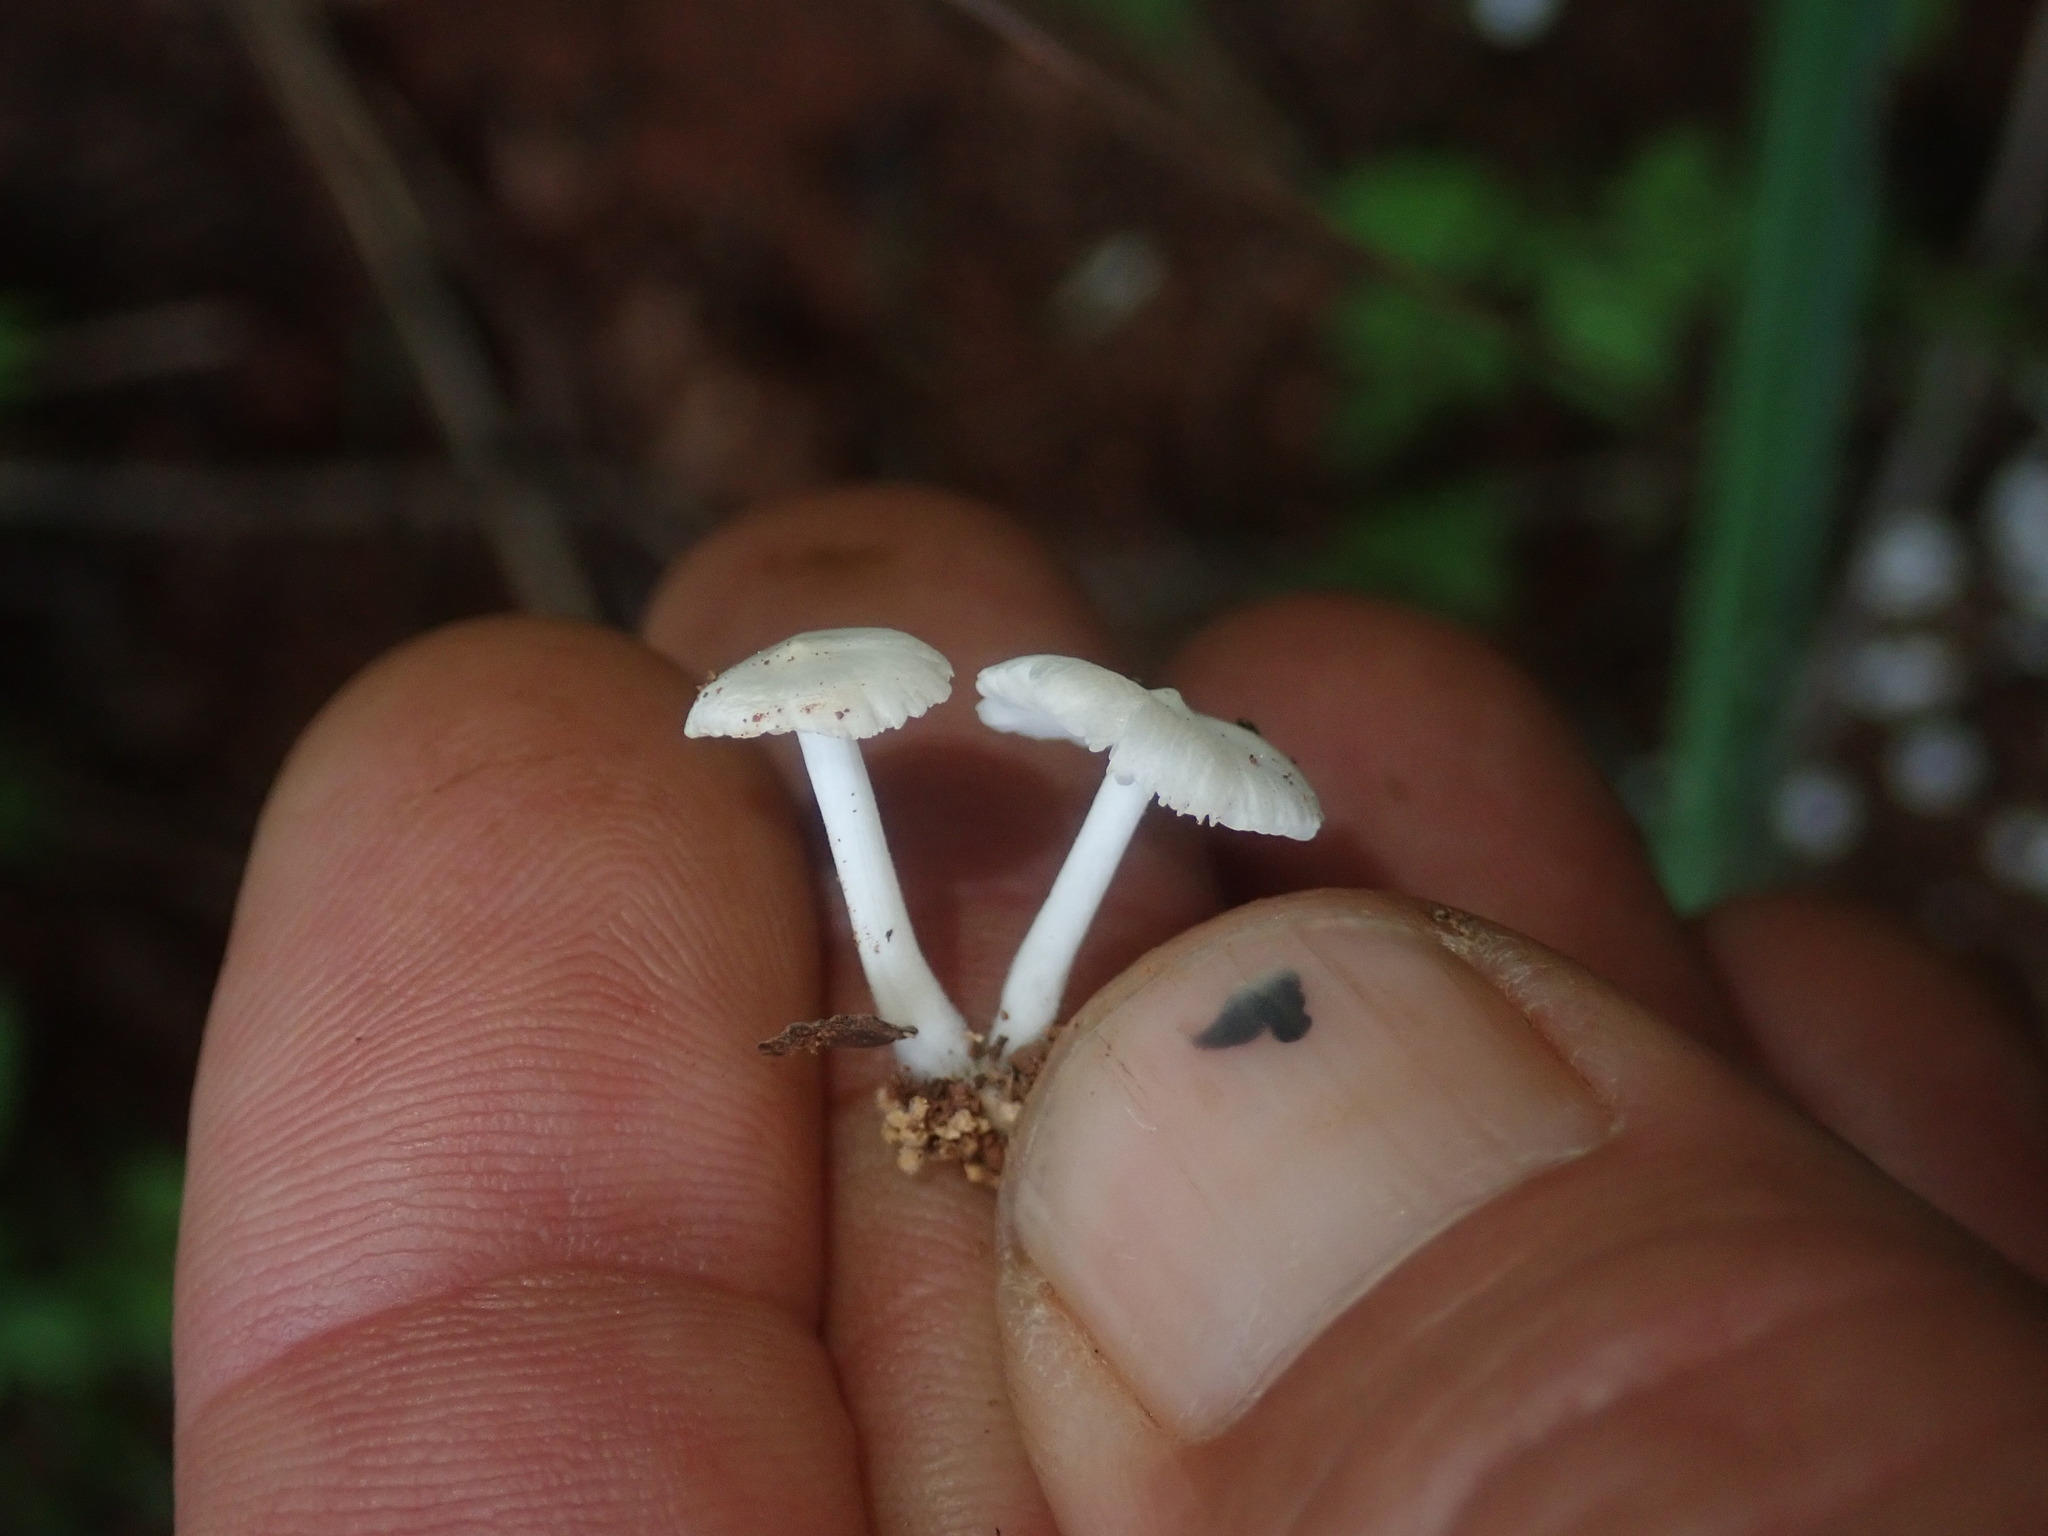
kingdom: Fungi
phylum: Basidiomycota
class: Agaricomycetes
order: Agaricales
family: Lyophyllaceae
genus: Termitomyces
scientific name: Termitomyces microcarpus
